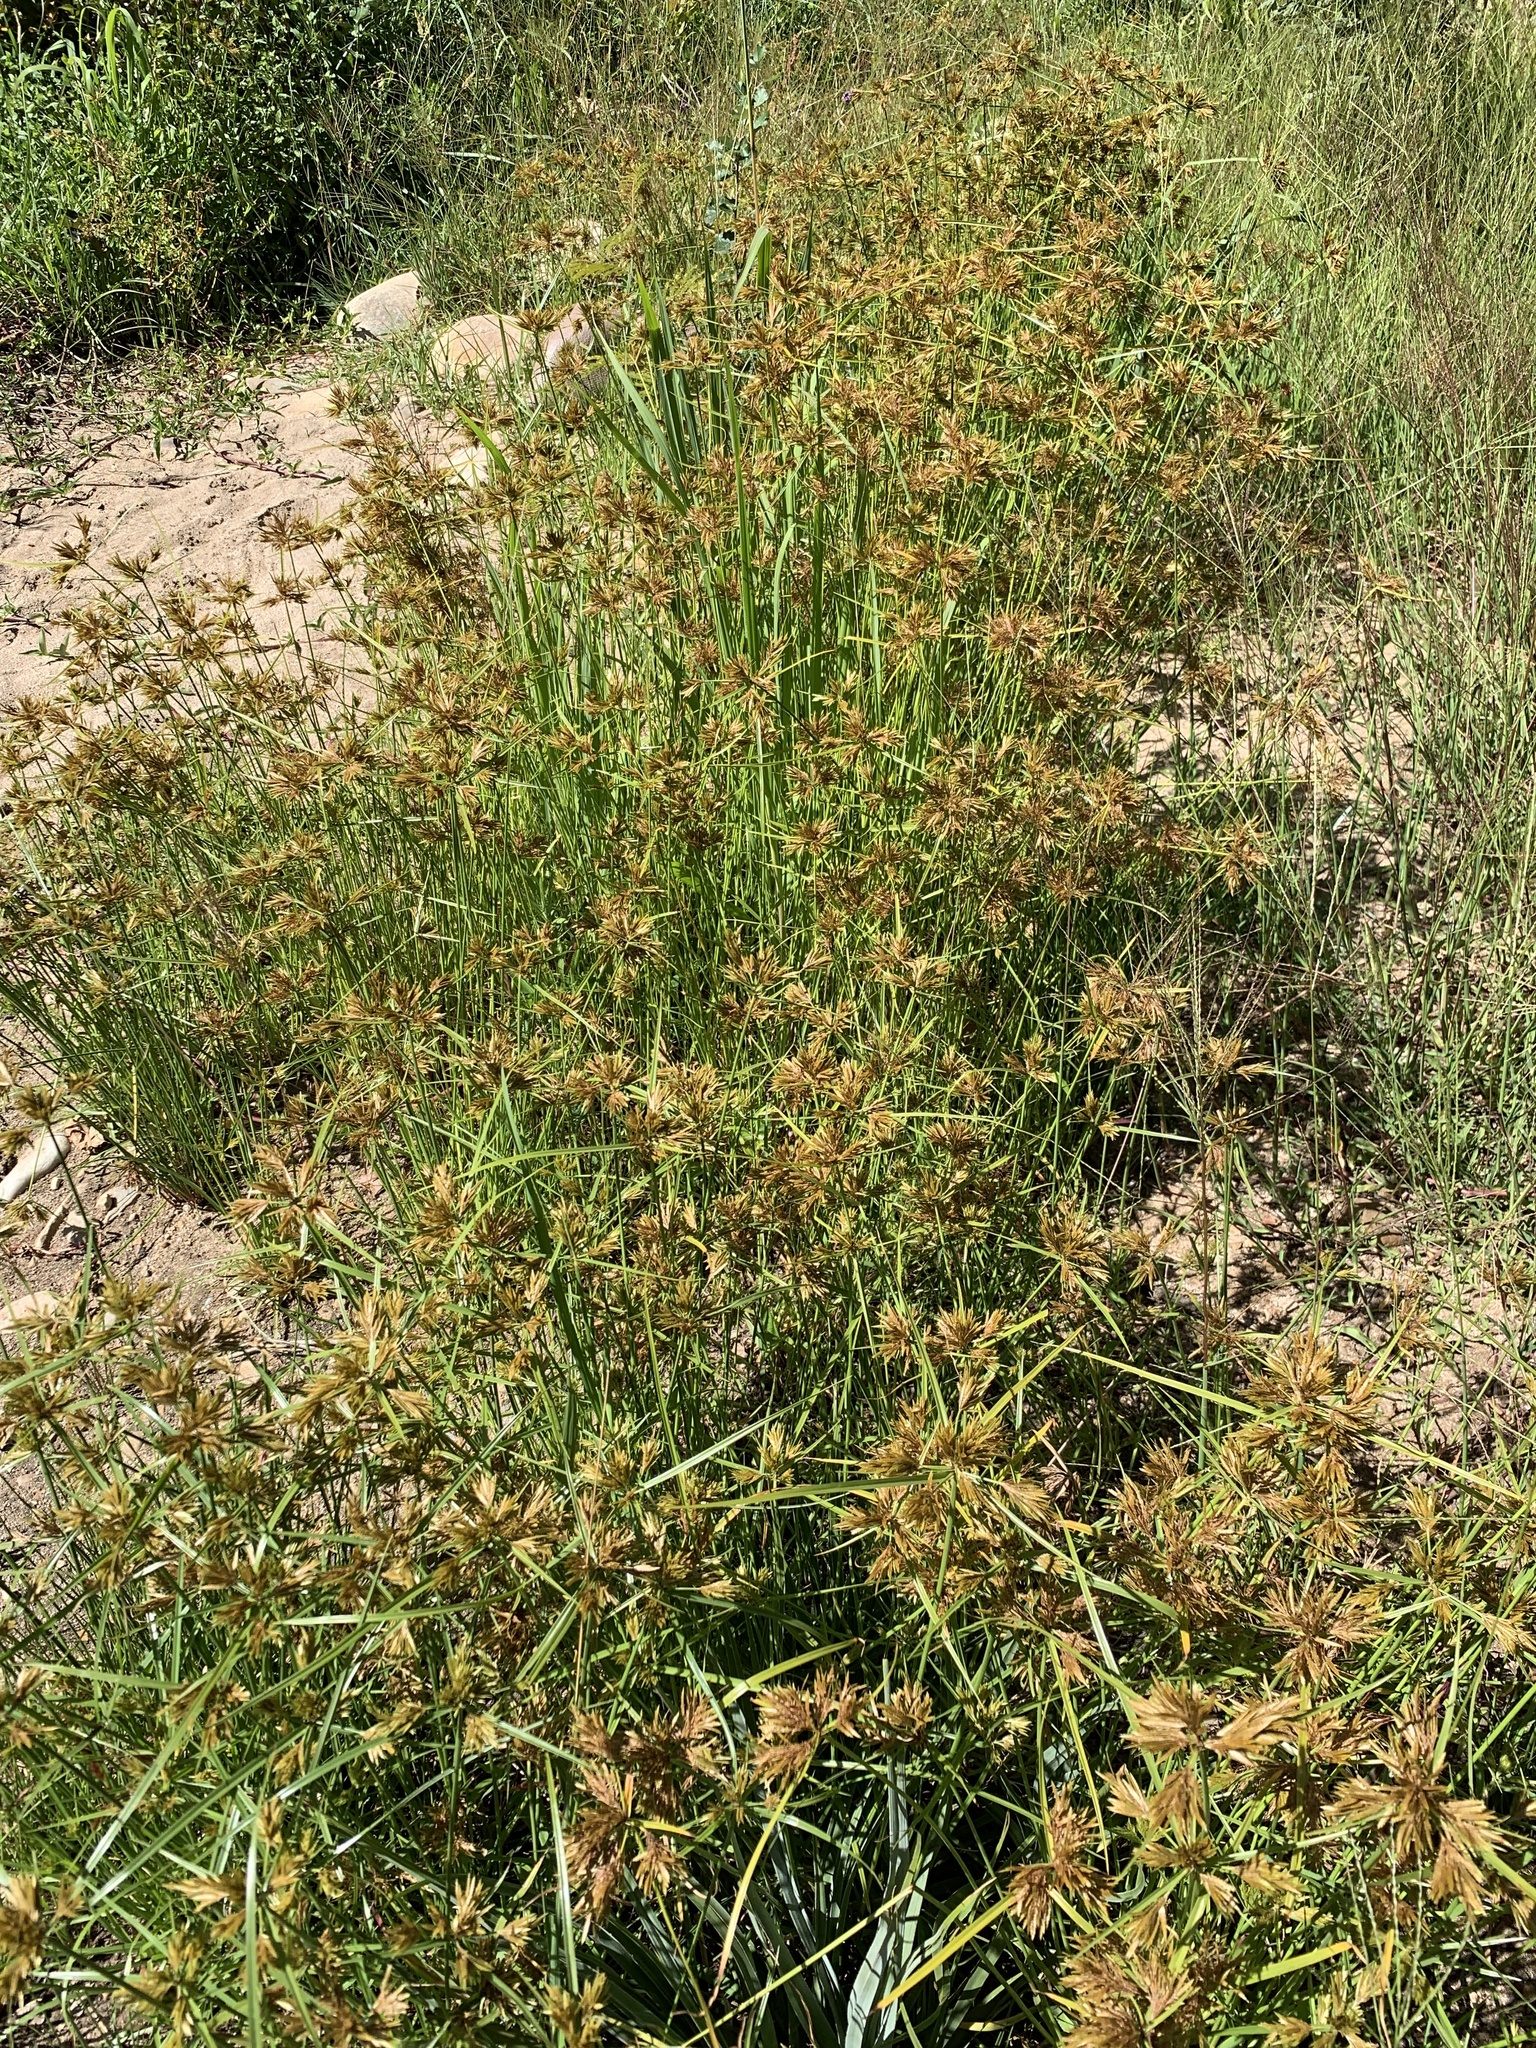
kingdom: Plantae
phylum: Tracheophyta
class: Liliopsida
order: Poales
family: Cyperaceae
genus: Cyperus
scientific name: Cyperus polystachyos
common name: Bunchy flat sedge
